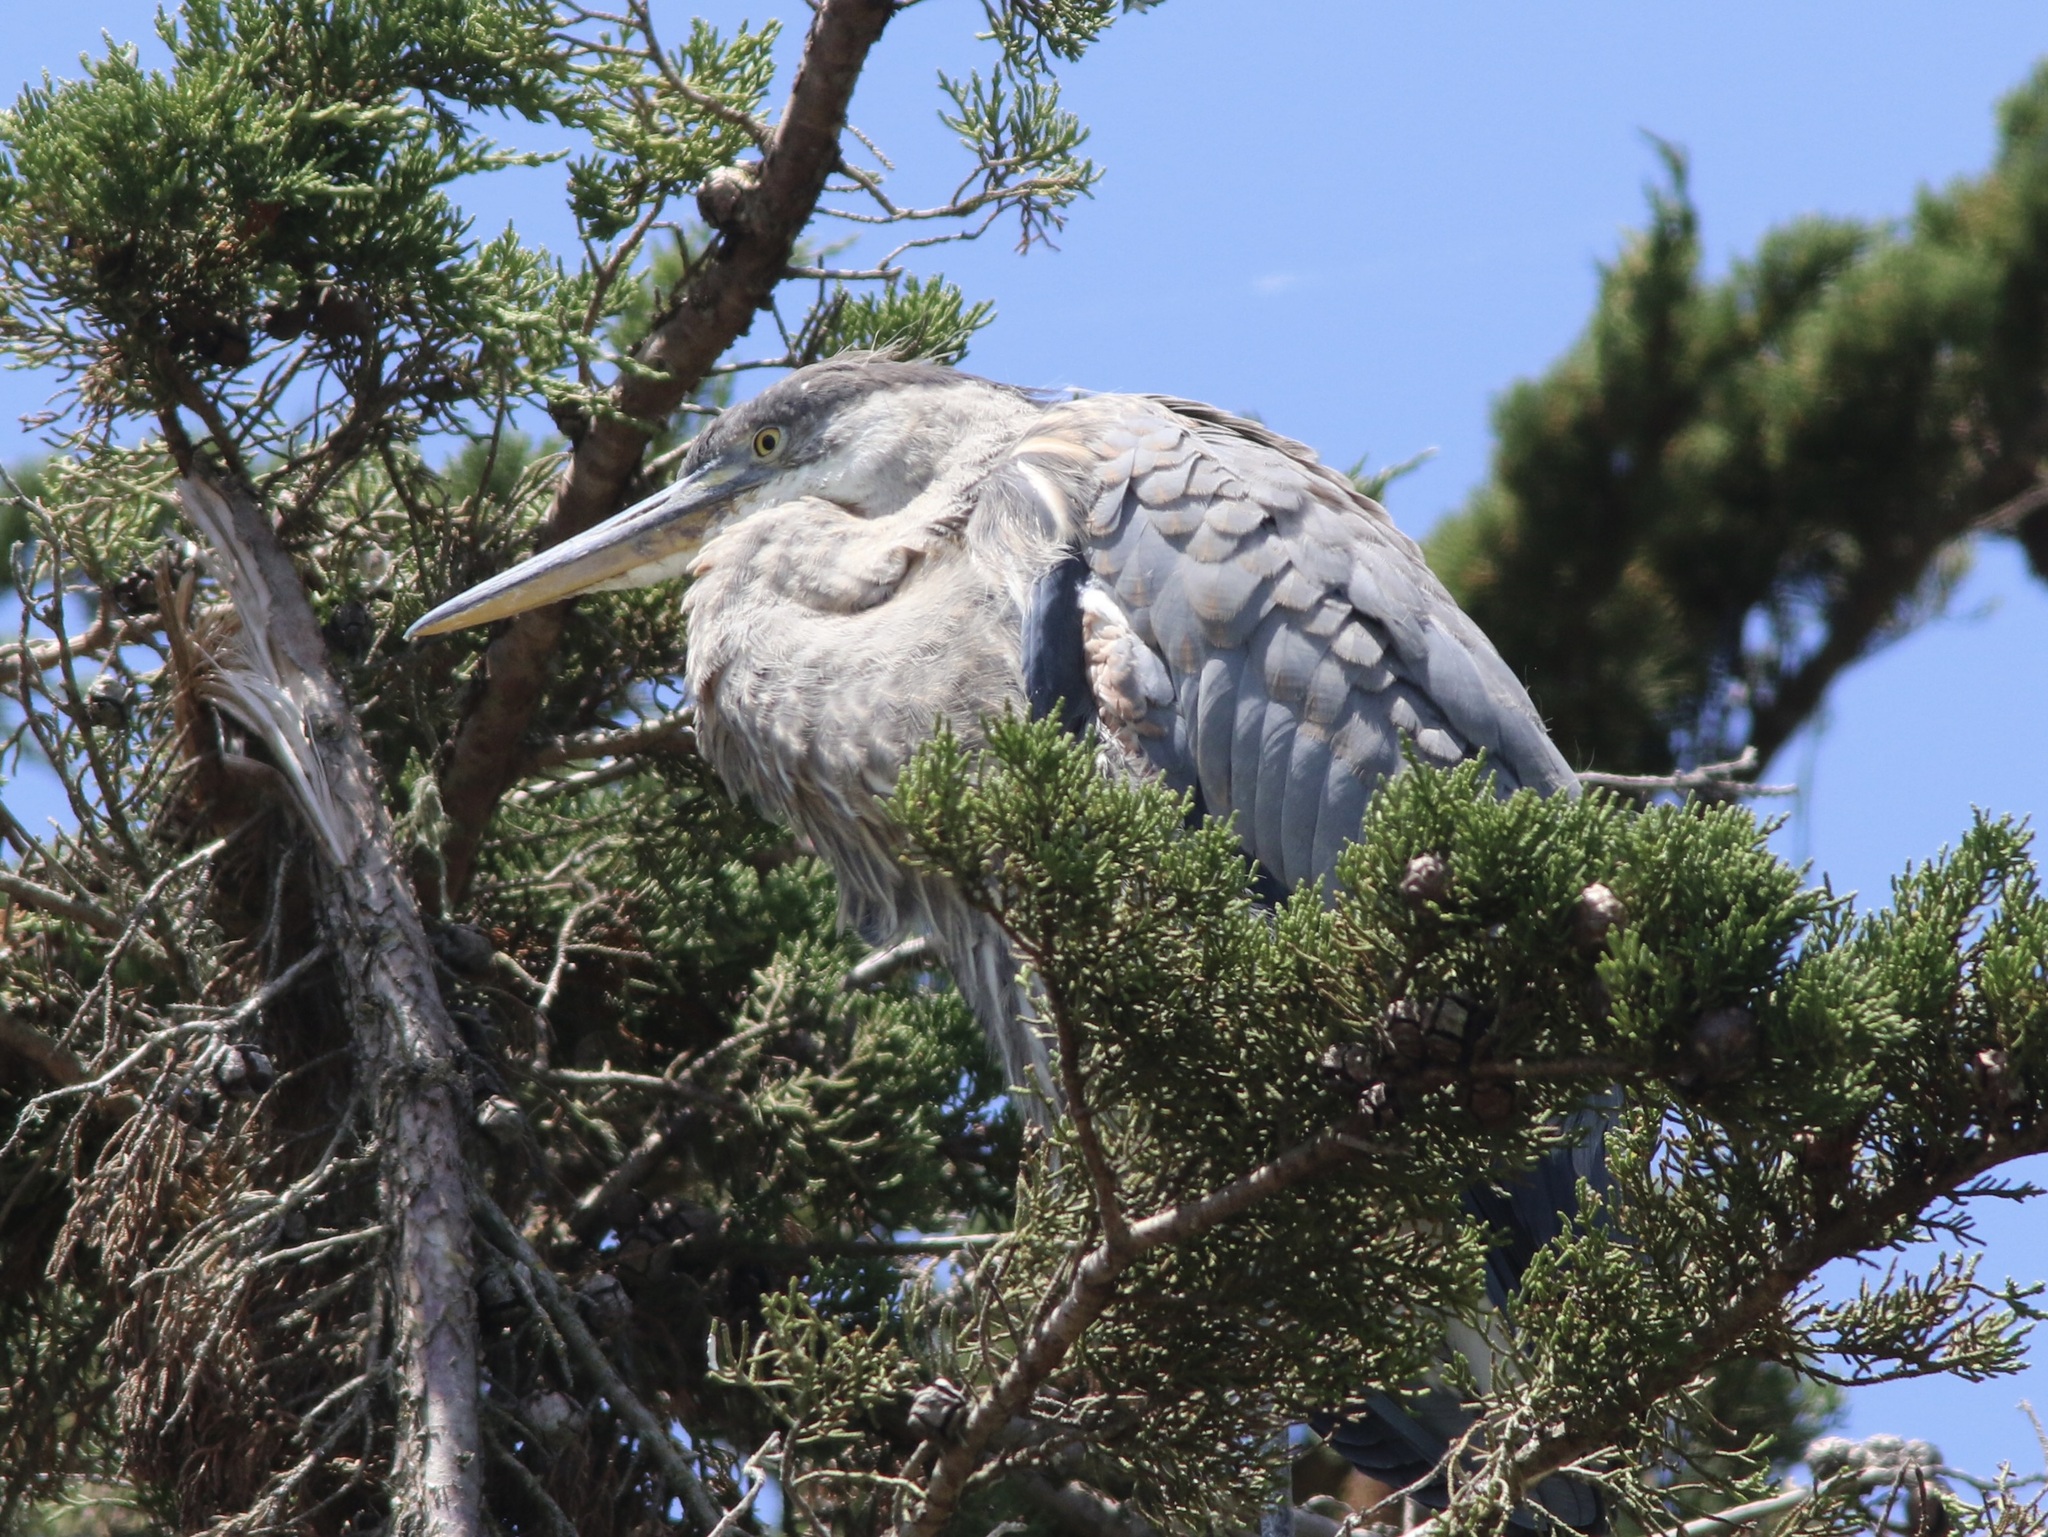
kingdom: Animalia
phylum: Chordata
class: Aves
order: Pelecaniformes
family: Ardeidae
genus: Ardea
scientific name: Ardea herodias
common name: Great blue heron
